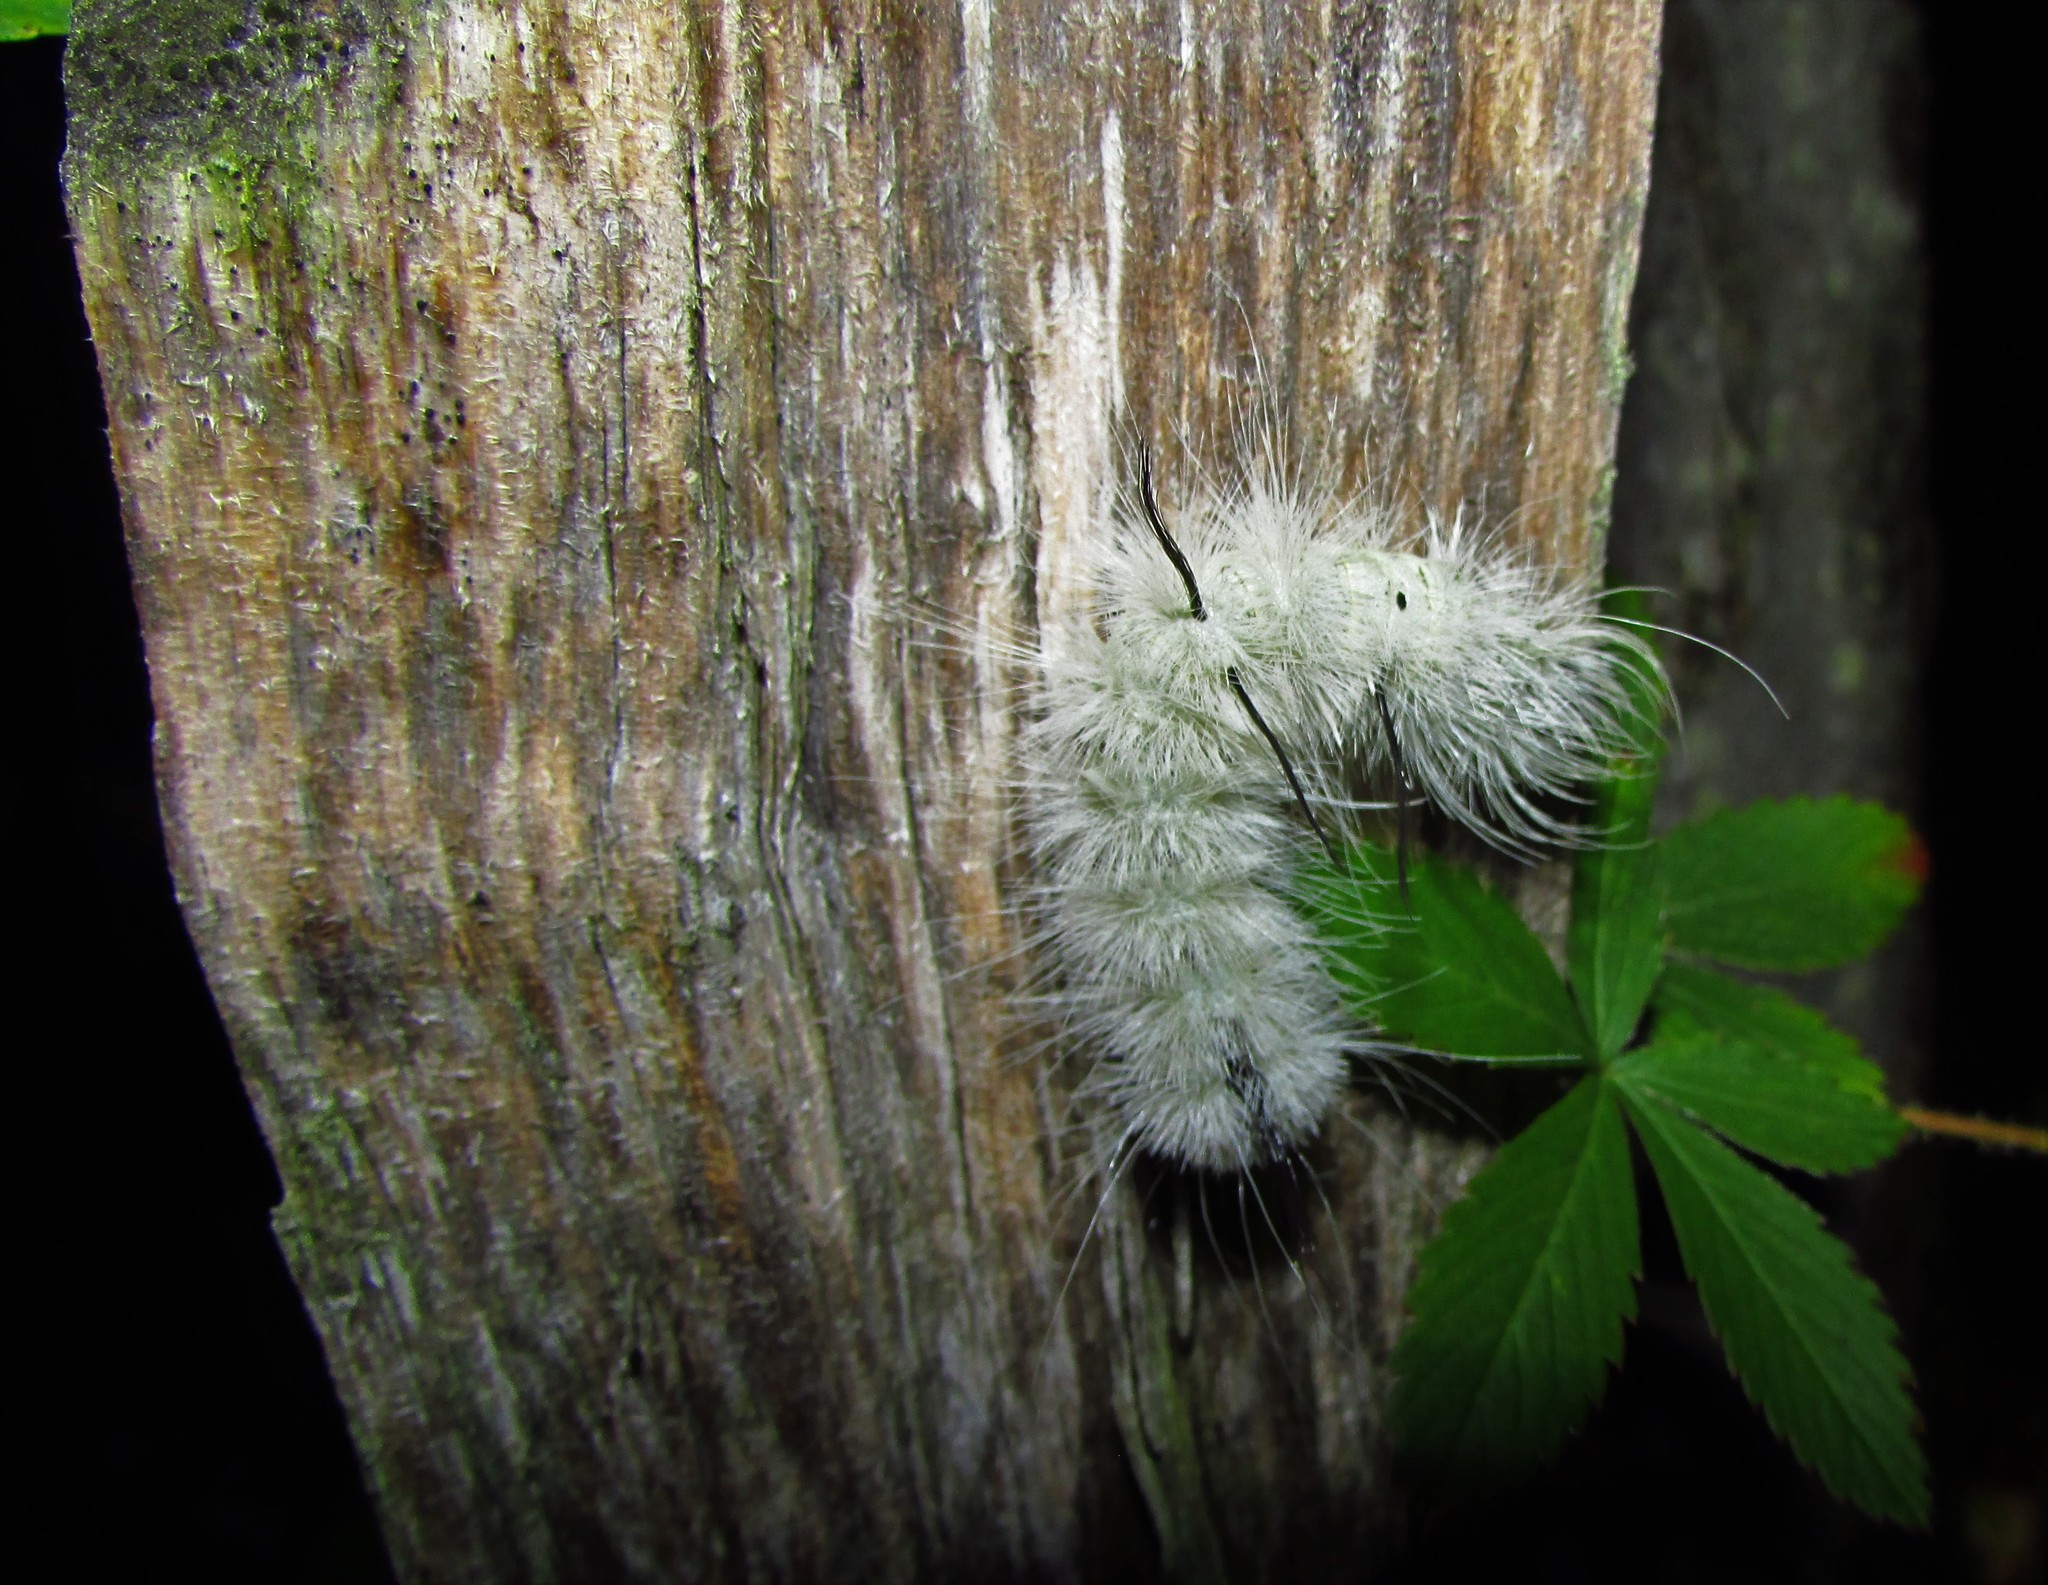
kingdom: Animalia
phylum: Arthropoda
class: Insecta
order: Lepidoptera
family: Noctuidae
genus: Acronicta
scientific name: Acronicta americana
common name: American dagger
